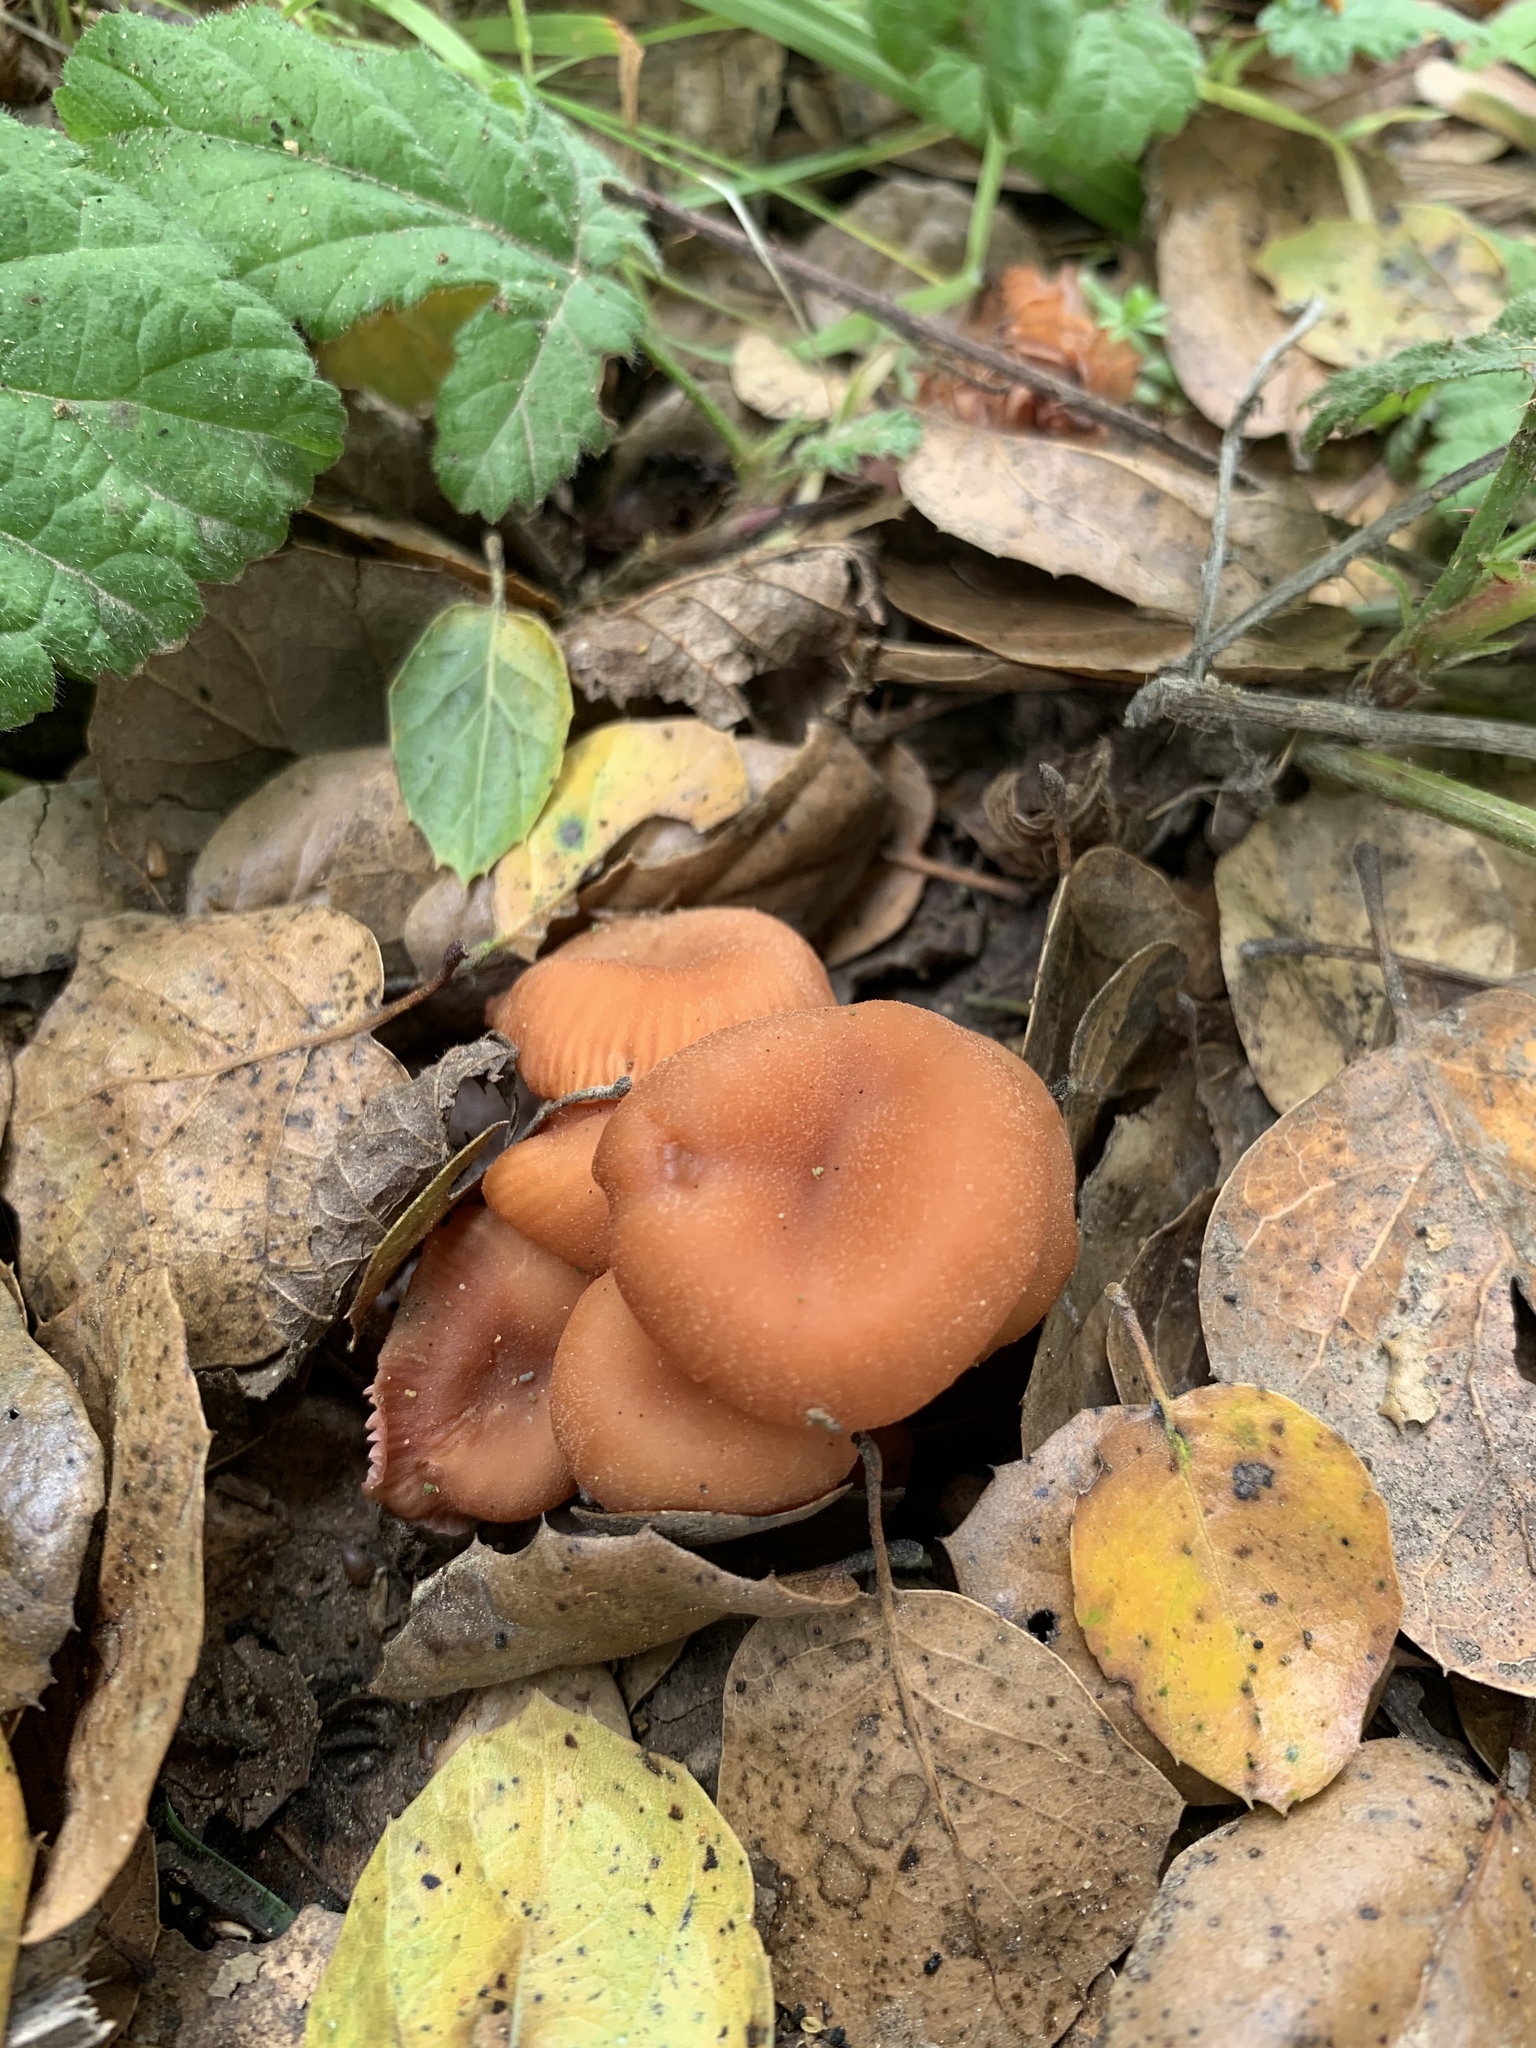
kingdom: Fungi
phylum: Basidiomycota
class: Agaricomycetes
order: Agaricales
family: Hydnangiaceae
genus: Laccaria
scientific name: Laccaria laccata
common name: Deceiver
